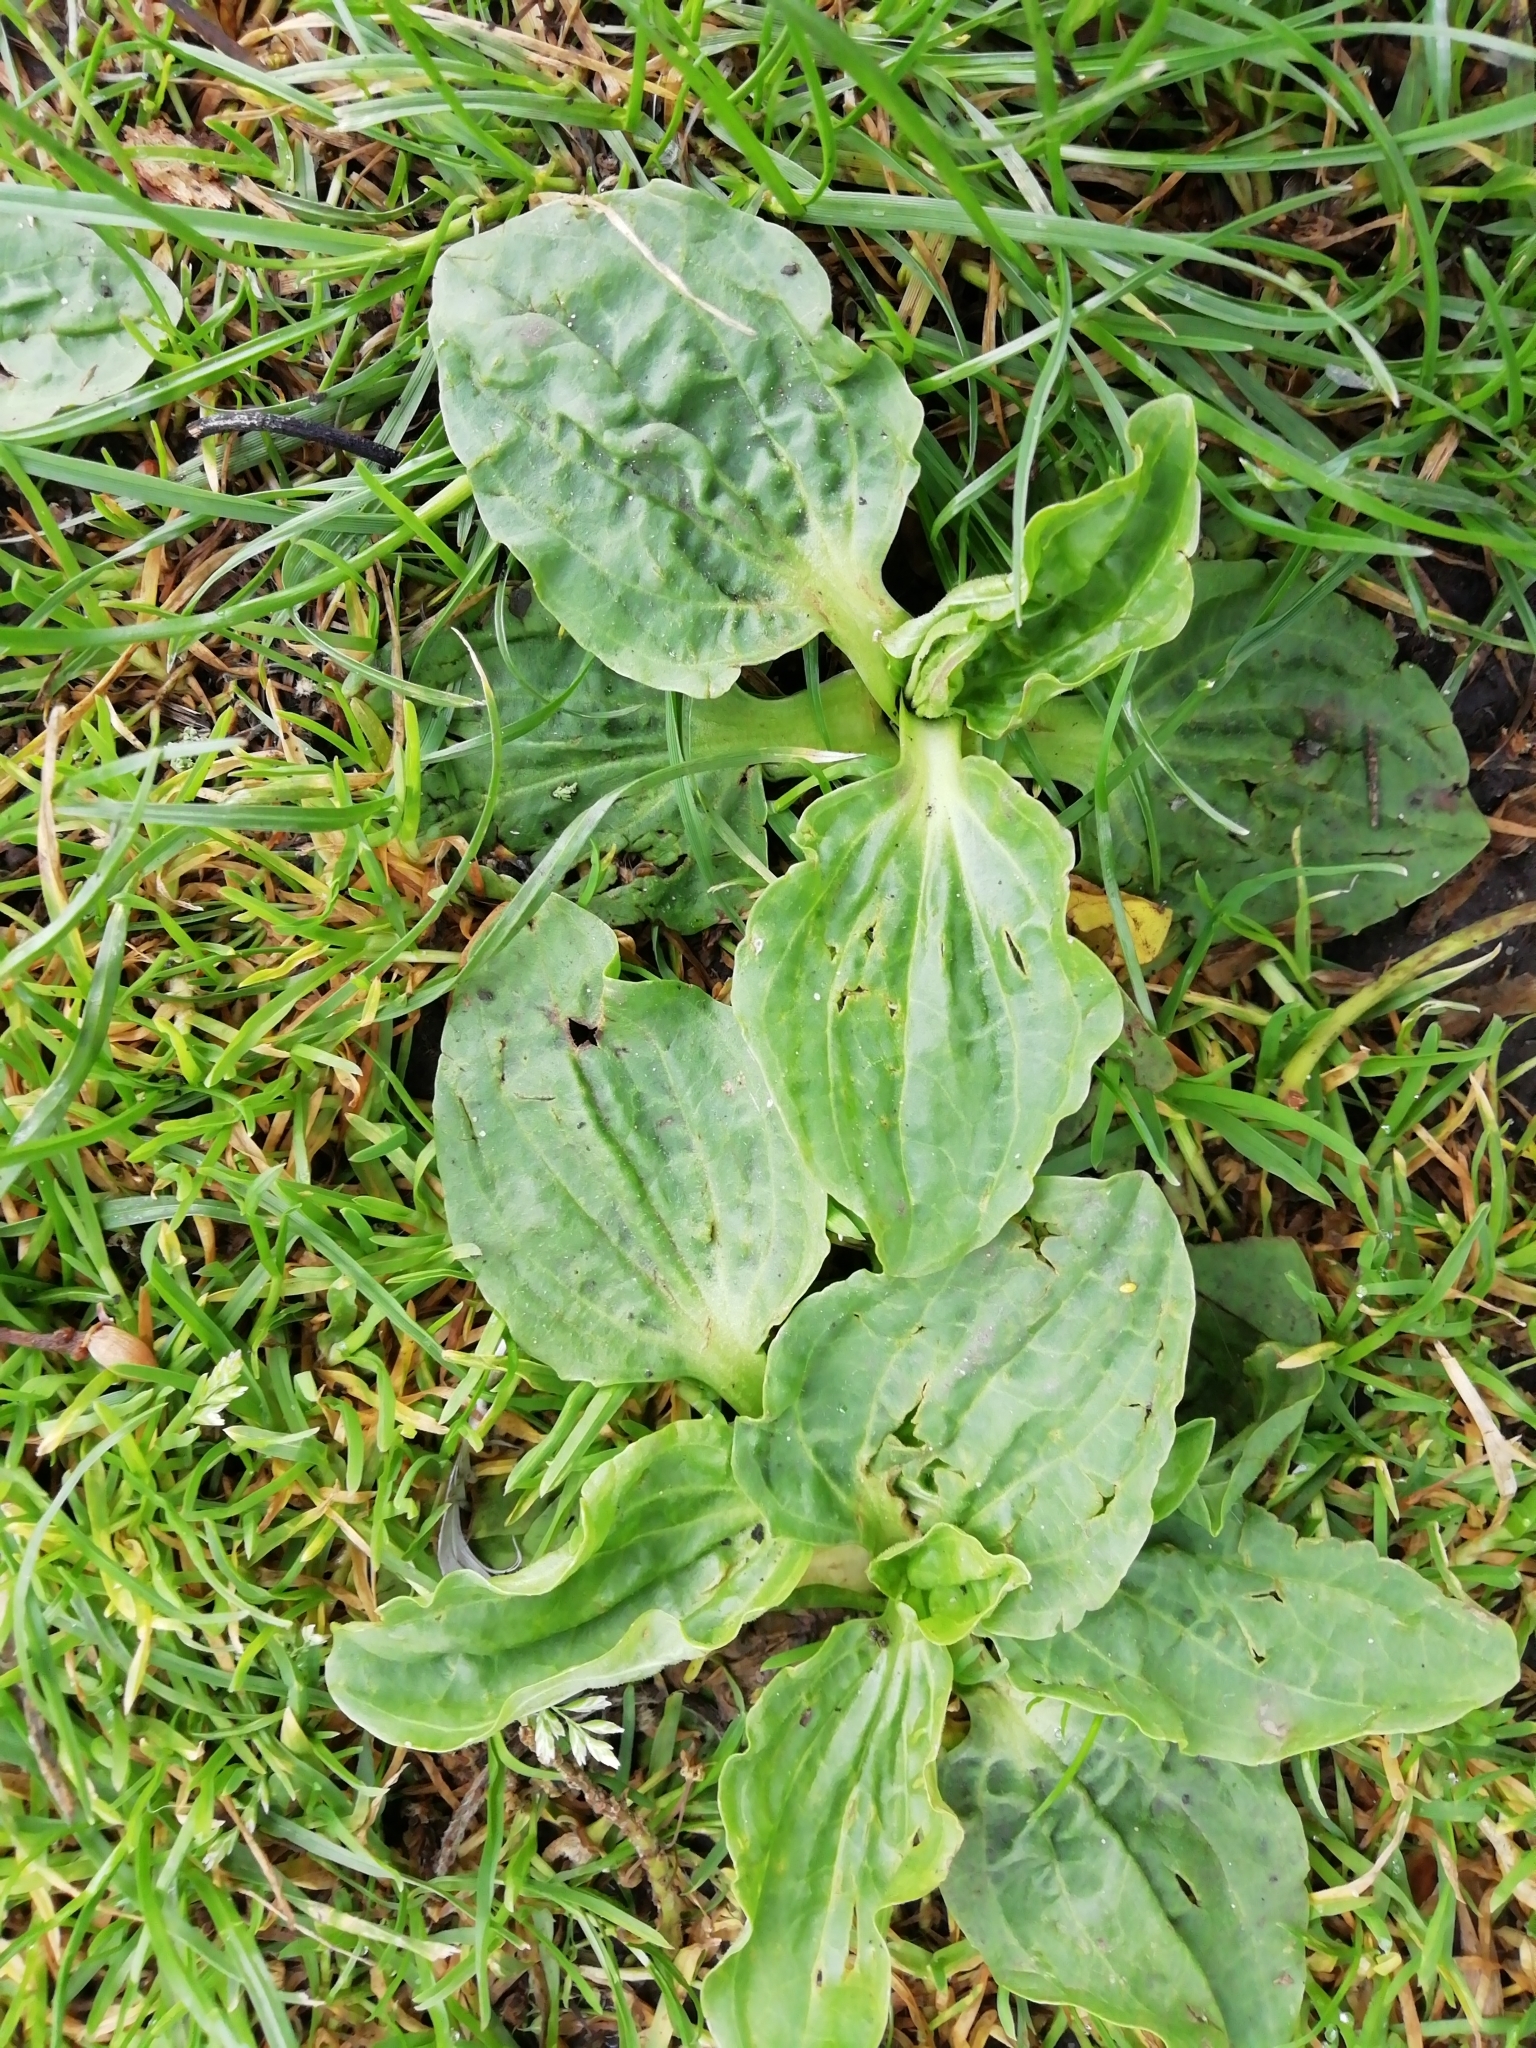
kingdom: Plantae
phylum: Tracheophyta
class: Magnoliopsida
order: Lamiales
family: Plantaginaceae
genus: Plantago
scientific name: Plantago major
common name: Common plantain
